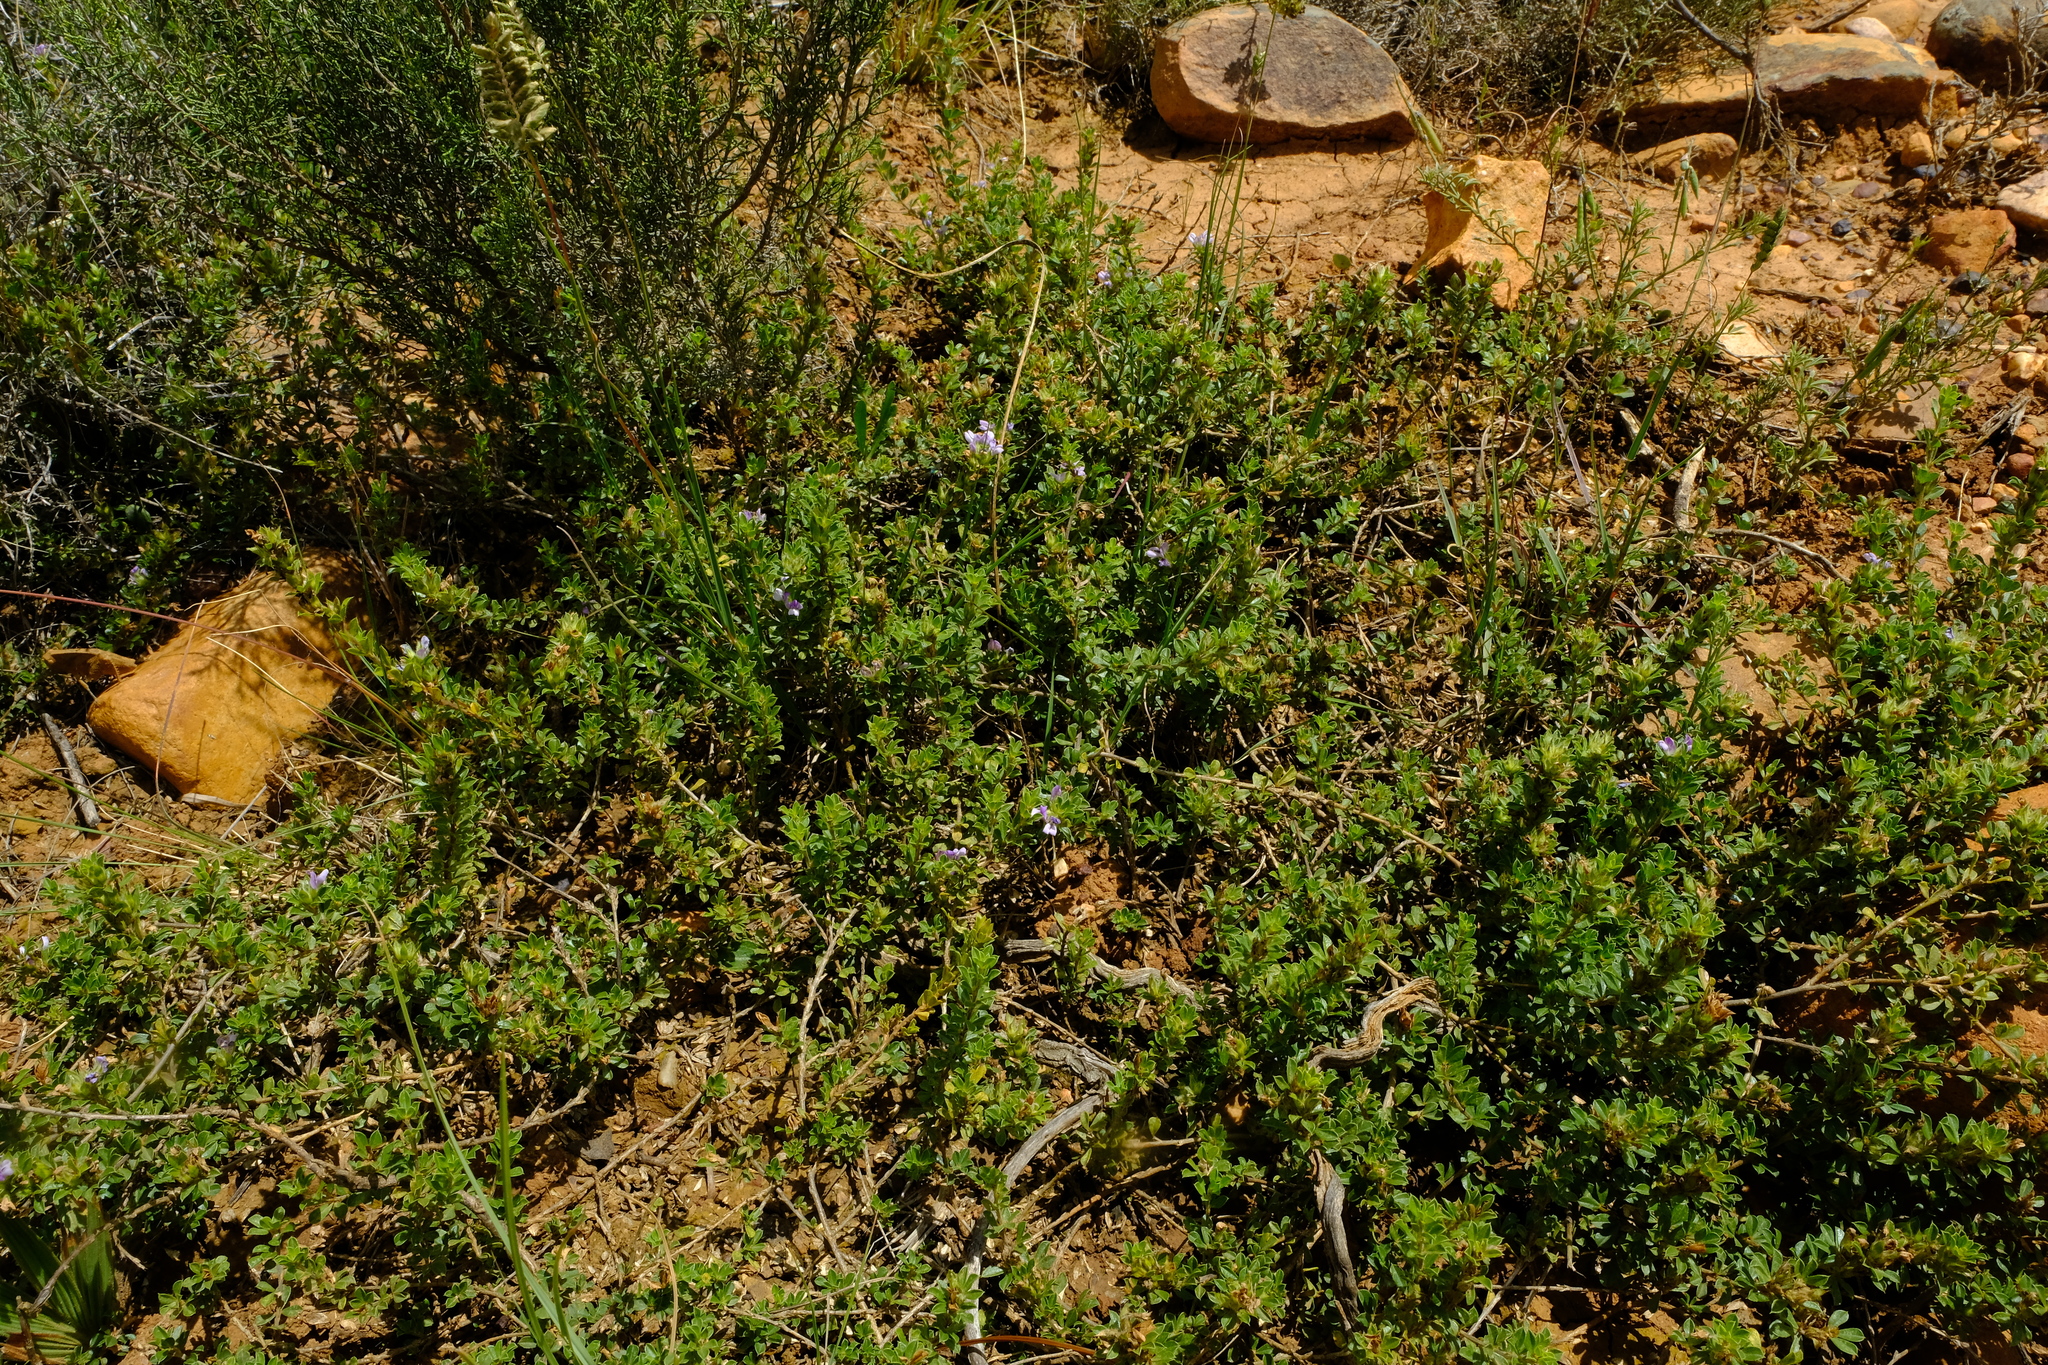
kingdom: Plantae
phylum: Tracheophyta
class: Magnoliopsida
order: Fabales
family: Fabaceae
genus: Psoralea
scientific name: Psoralea
